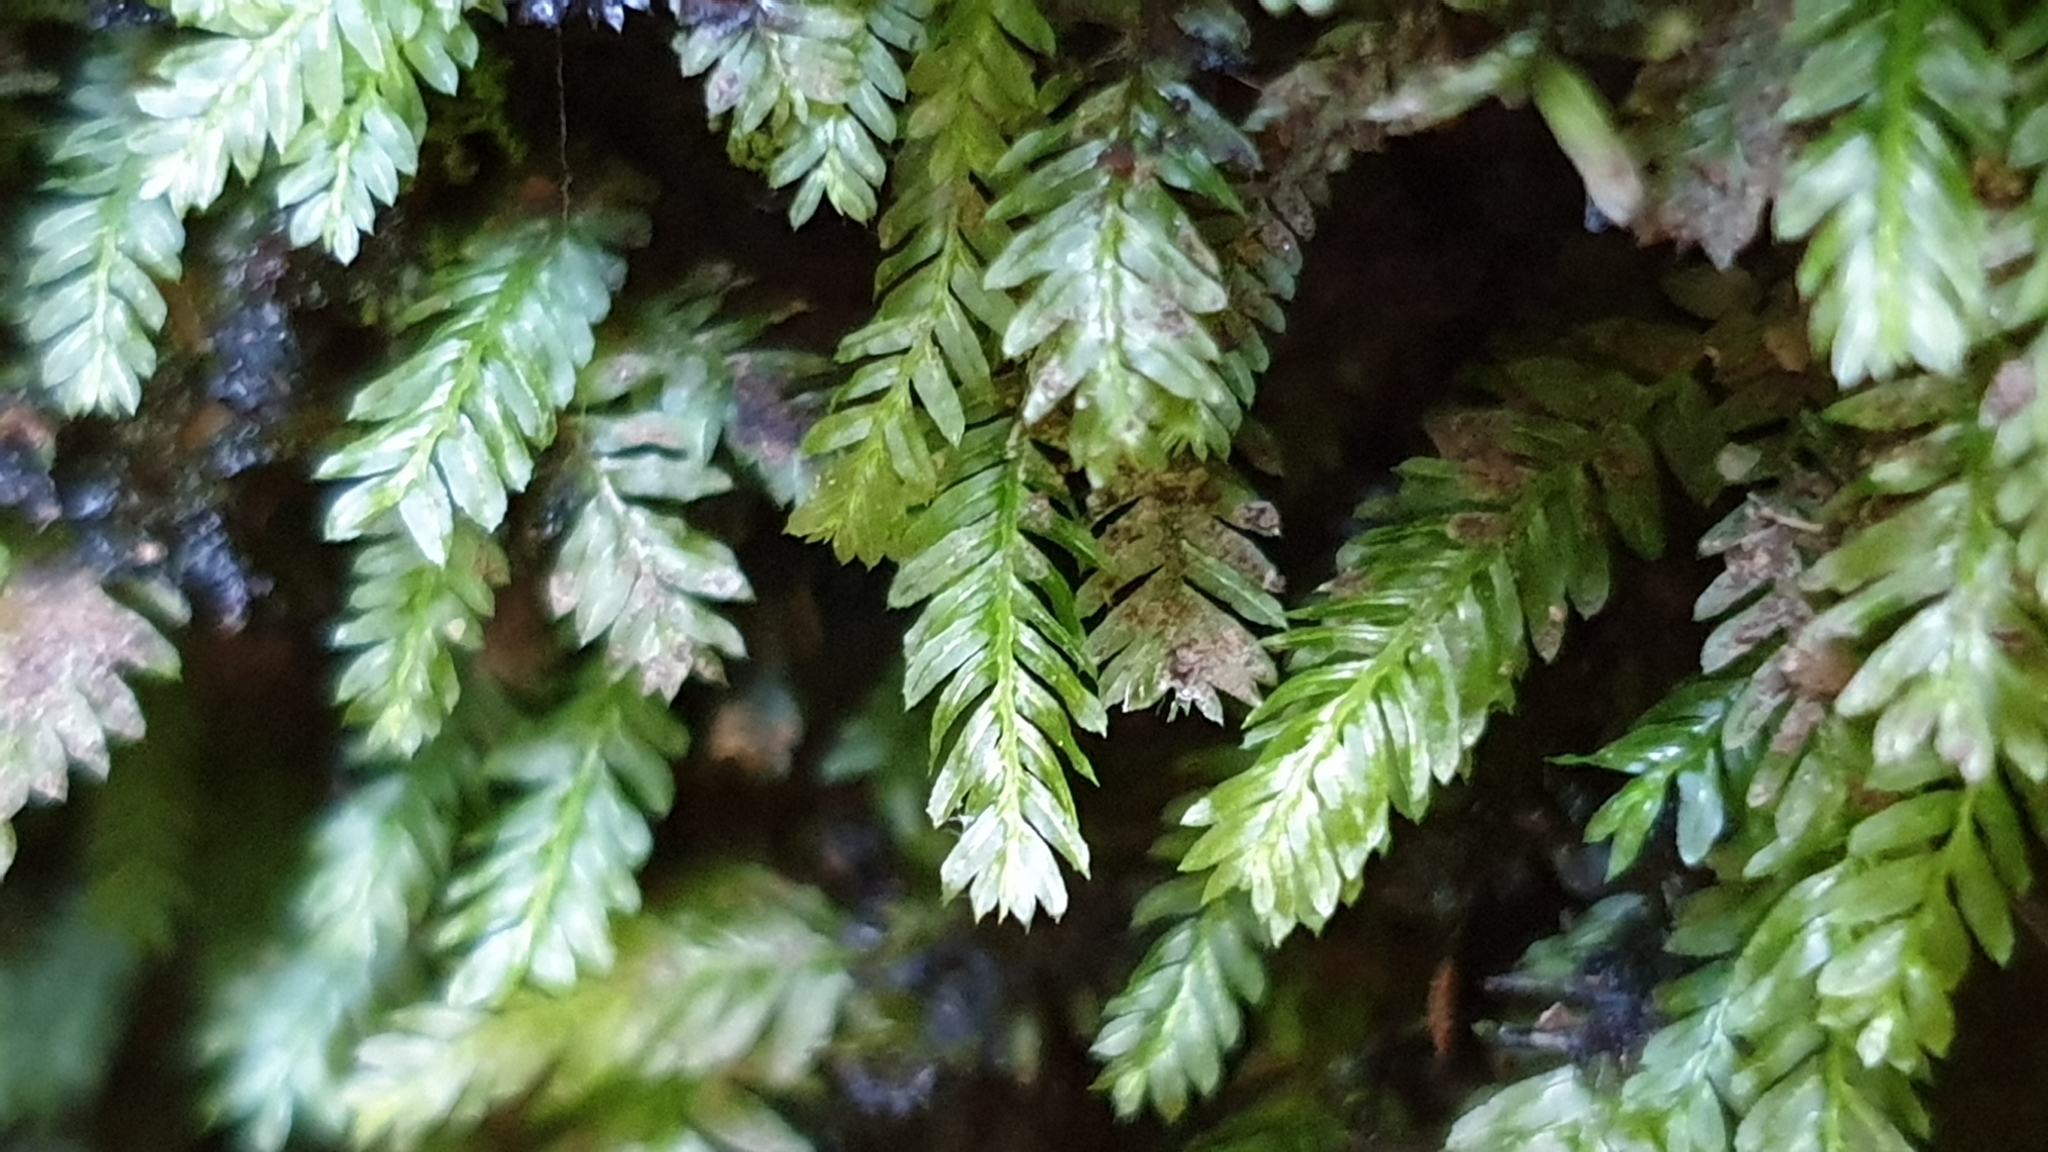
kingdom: Plantae
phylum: Bryophyta
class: Bryopsida
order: Rhizogoniales
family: Rhizogoniaceae
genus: Rhizogonium
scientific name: Rhizogonium distichum
